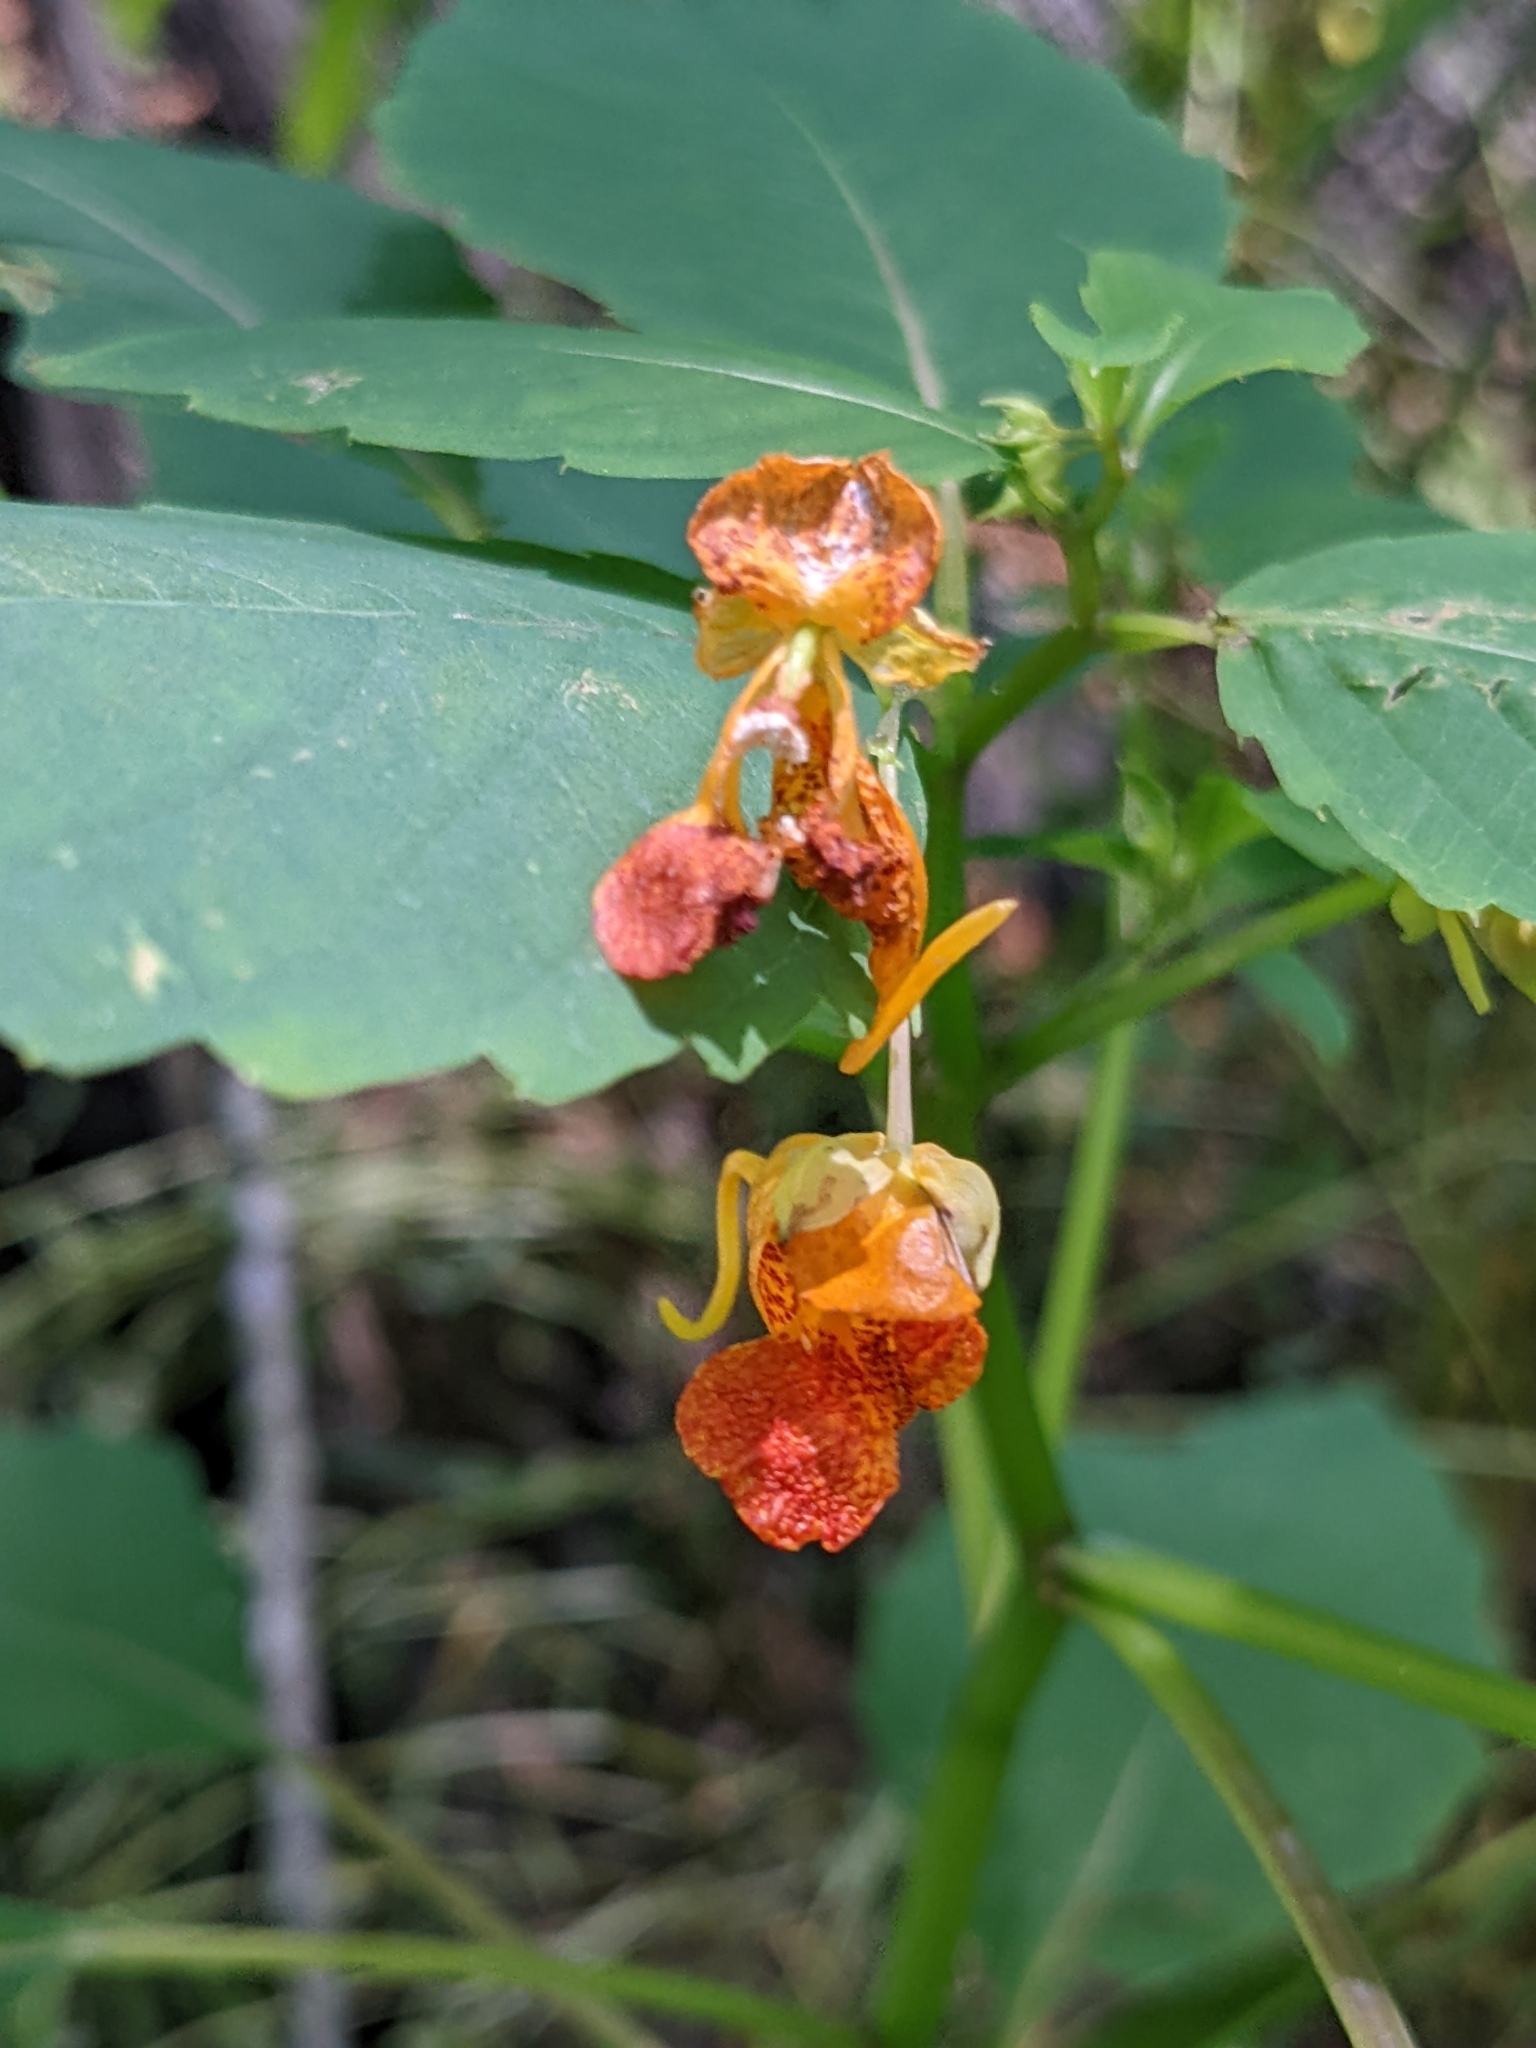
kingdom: Plantae
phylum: Tracheophyta
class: Magnoliopsida
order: Ericales
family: Balsaminaceae
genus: Impatiens
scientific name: Impatiens capensis
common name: Orange balsam
